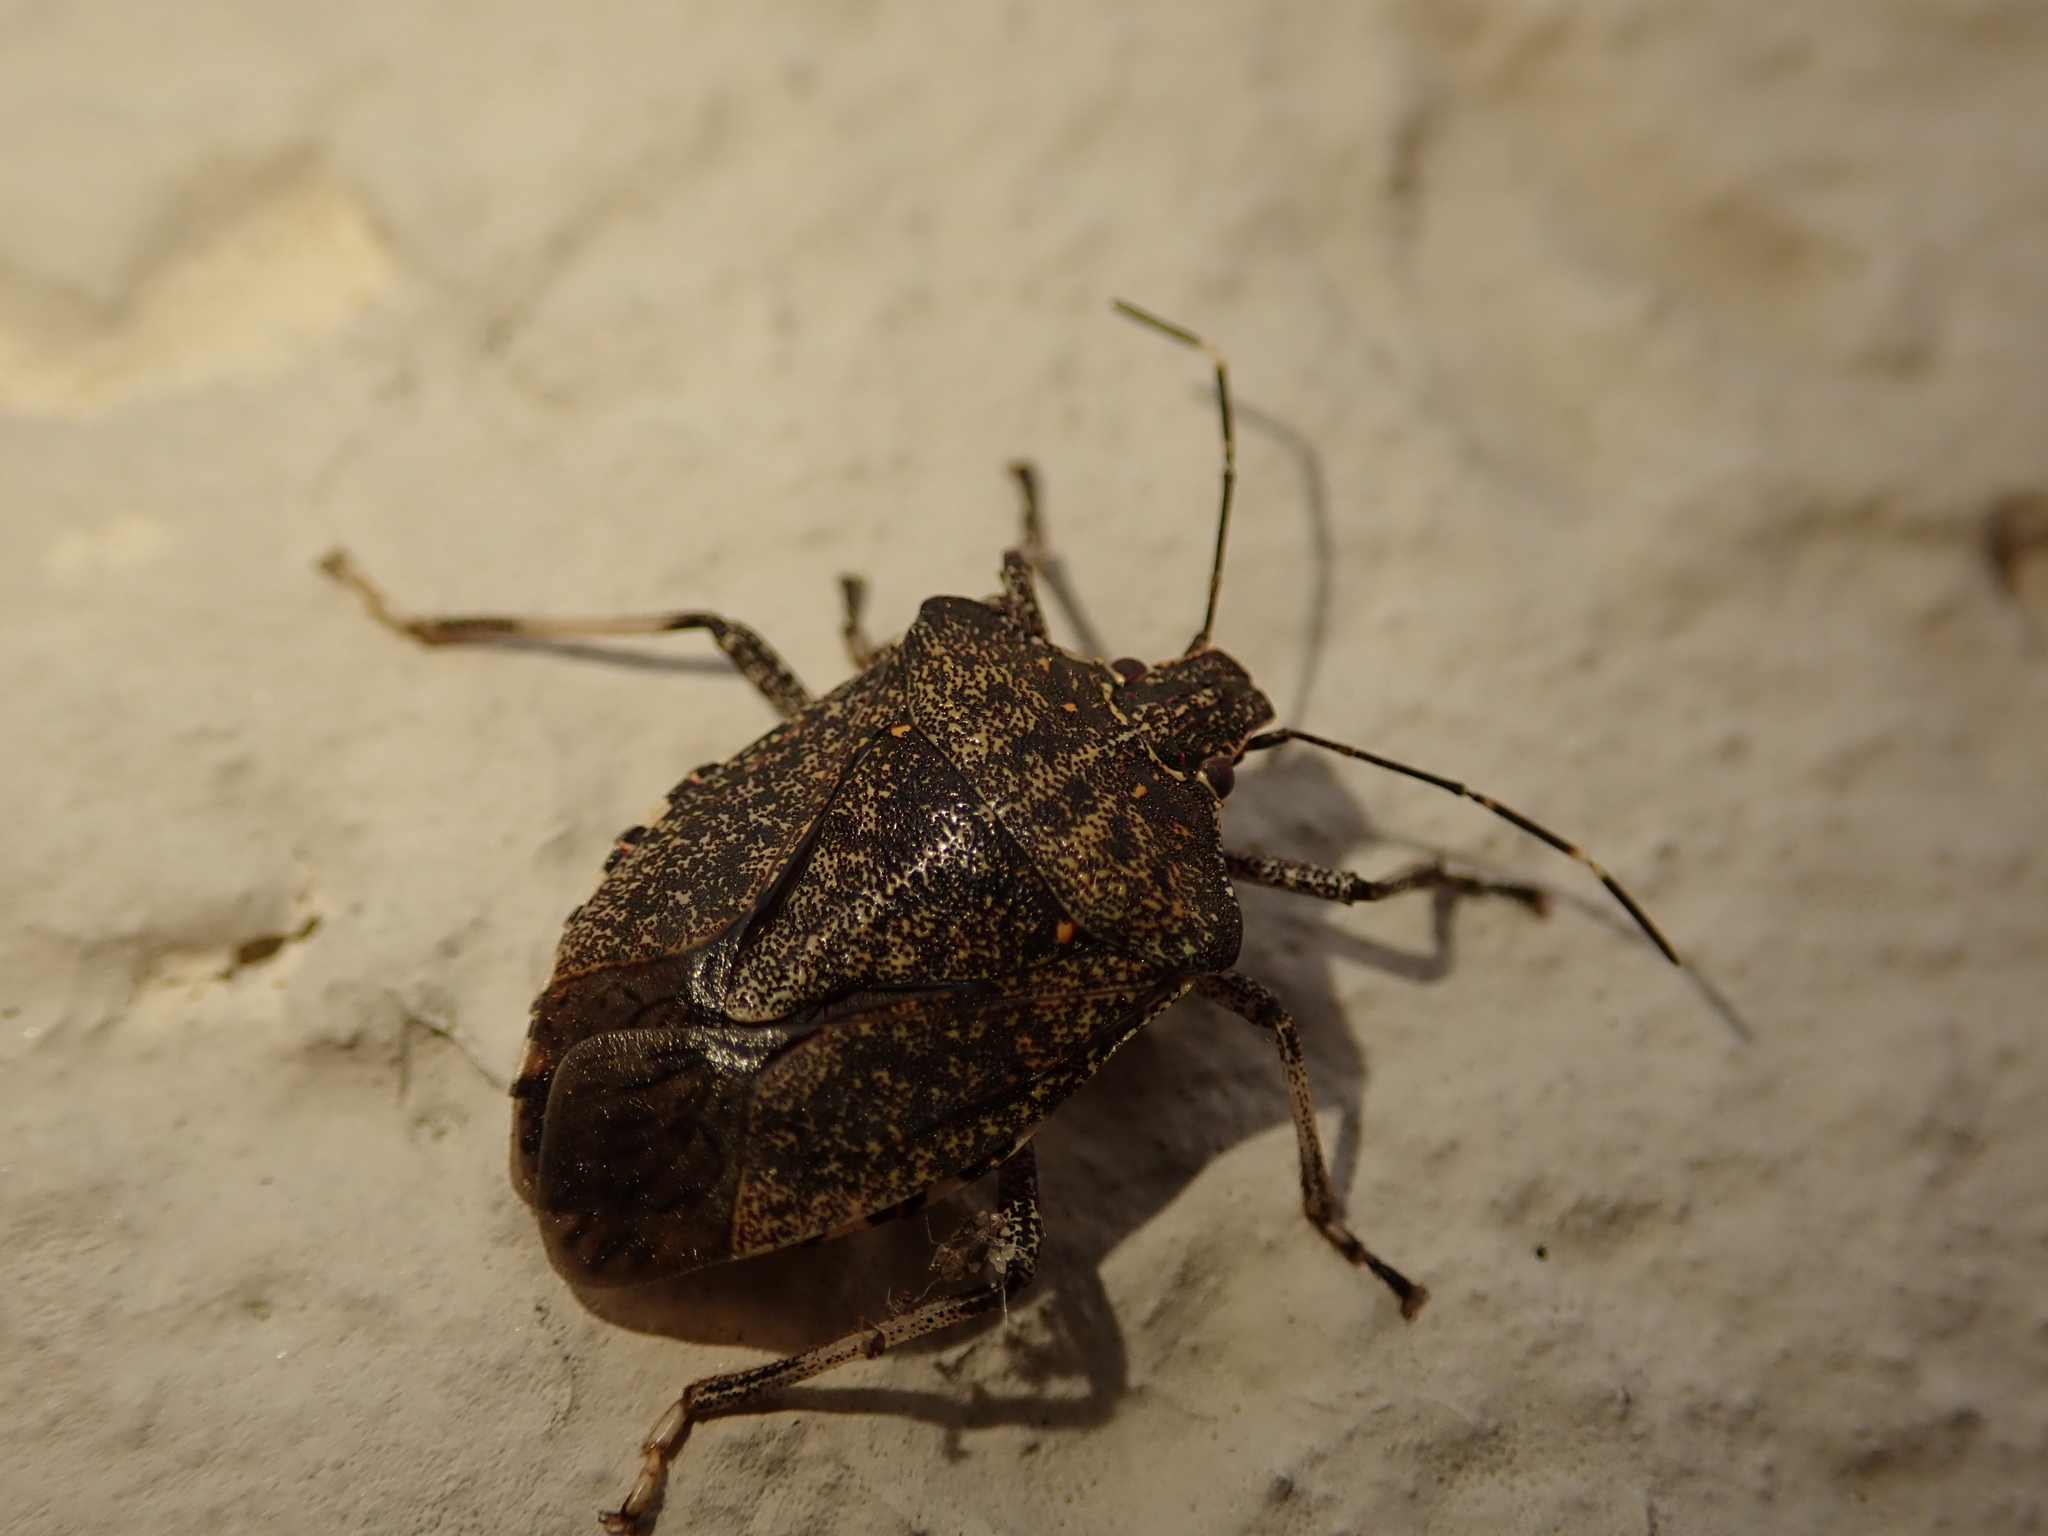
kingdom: Animalia
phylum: Arthropoda
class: Insecta
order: Hemiptera
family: Pentatomidae
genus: Halyomorpha
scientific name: Halyomorpha halys
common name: Brown marmorated stink bug
